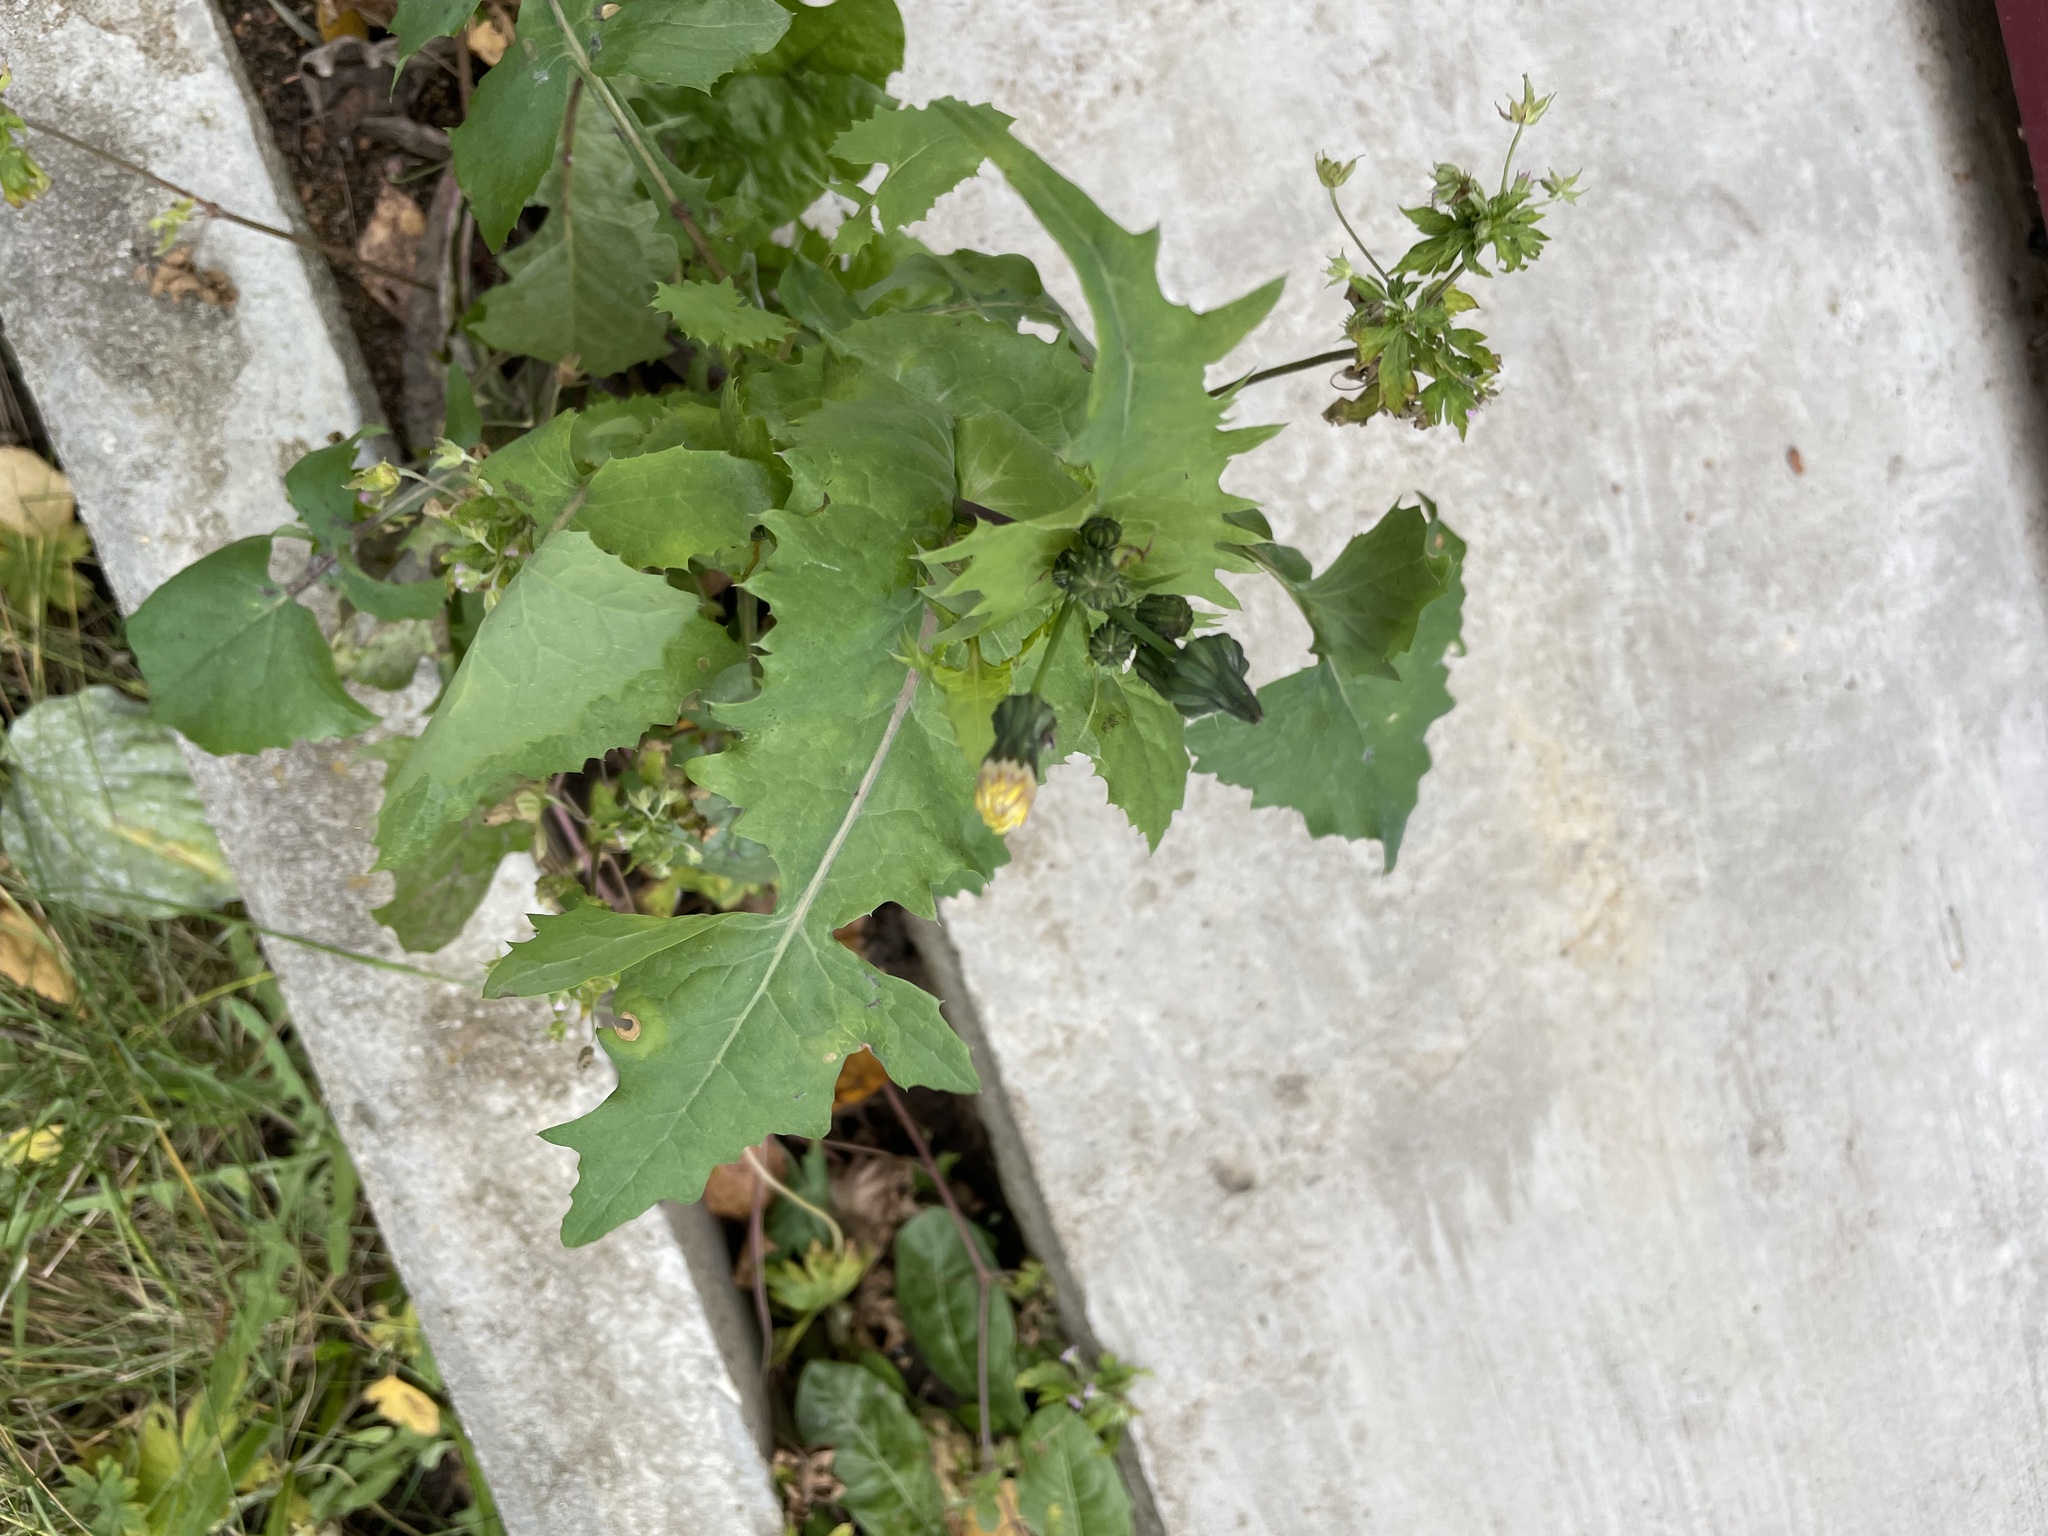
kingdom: Plantae
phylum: Tracheophyta
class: Magnoliopsida
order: Asterales
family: Asteraceae
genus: Sonchus
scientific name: Sonchus oleraceus
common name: Common sowthistle
